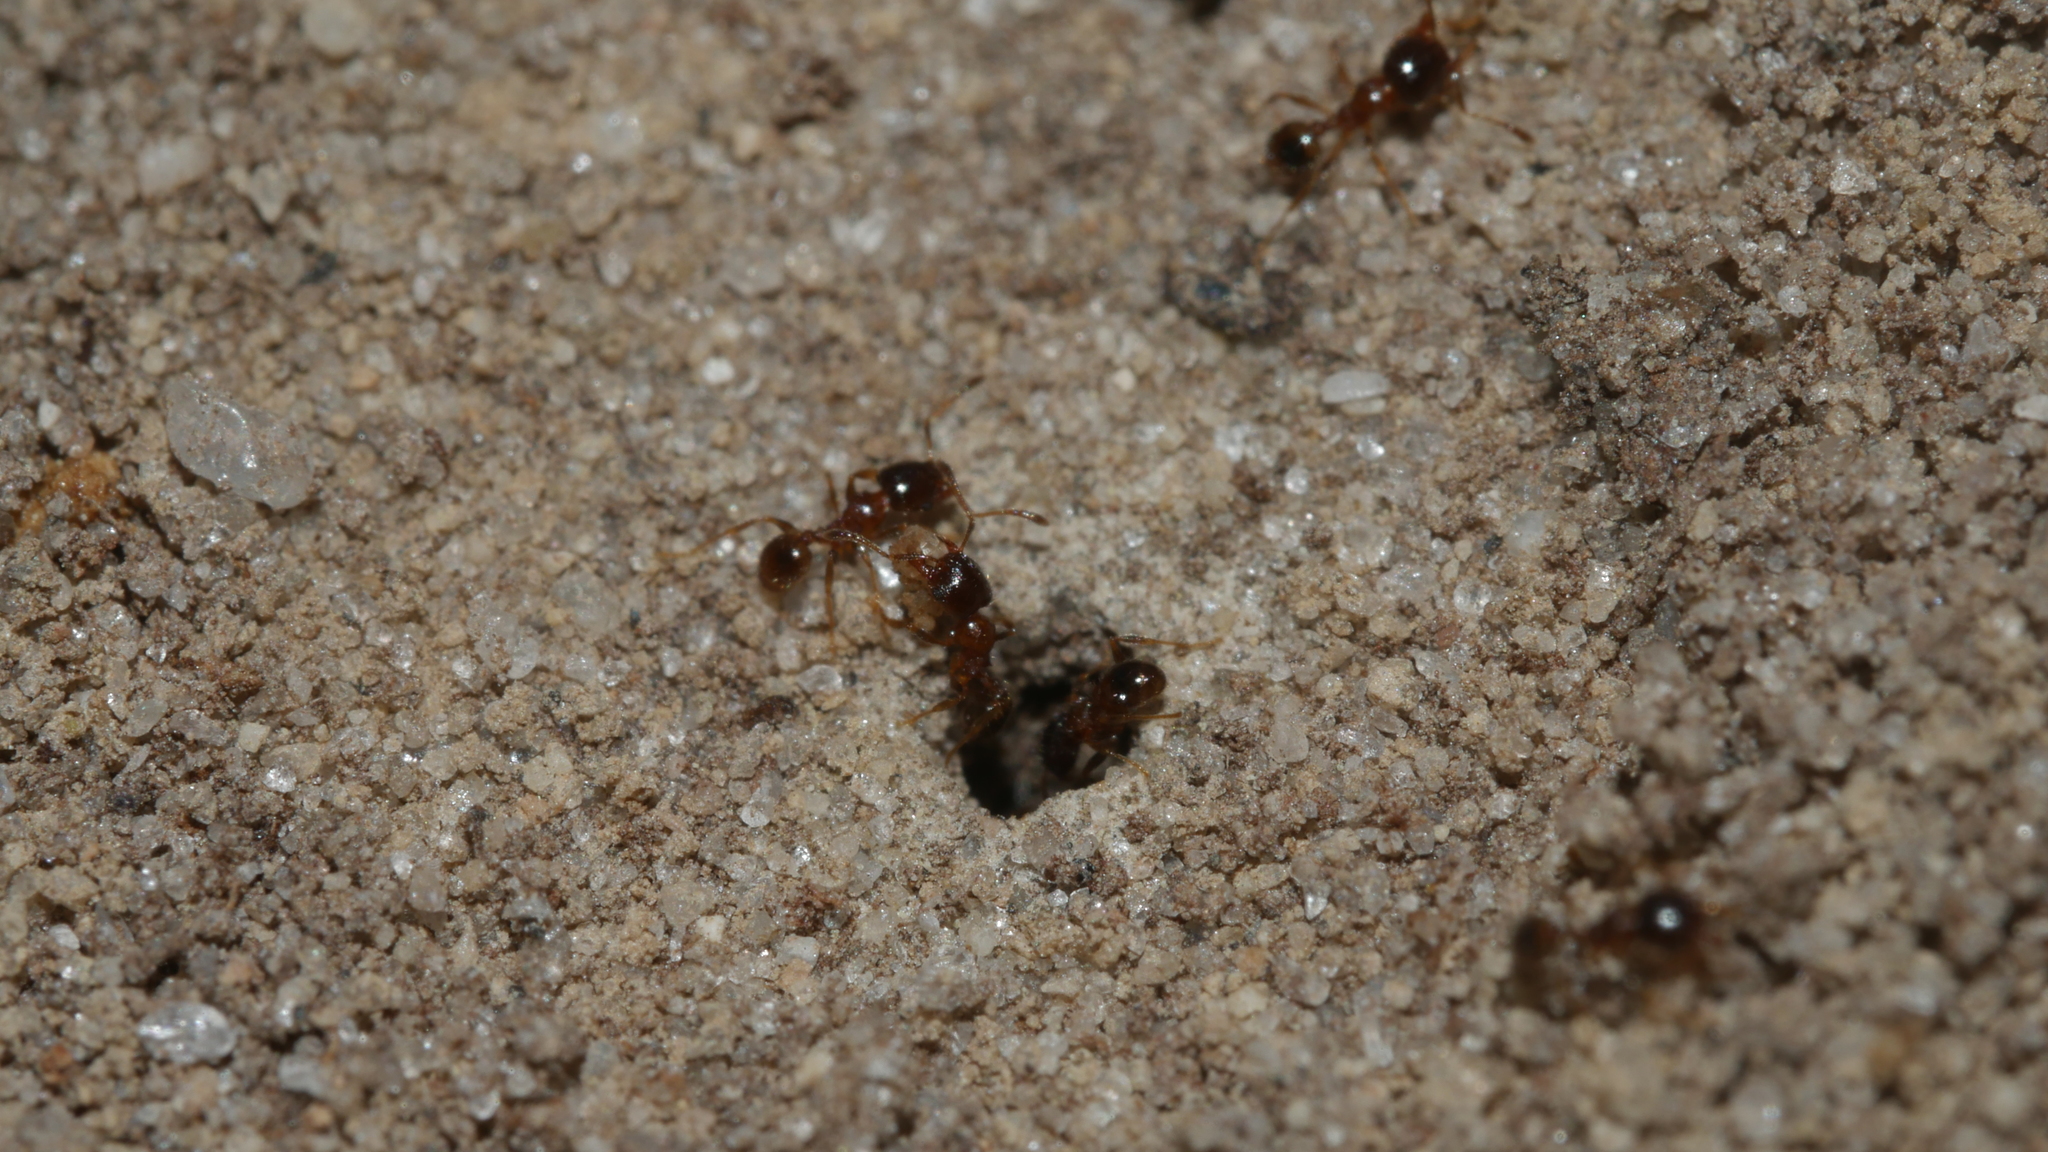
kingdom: Animalia
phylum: Arthropoda
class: Insecta
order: Hymenoptera
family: Formicidae
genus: Pheidole
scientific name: Pheidole bicarinata
